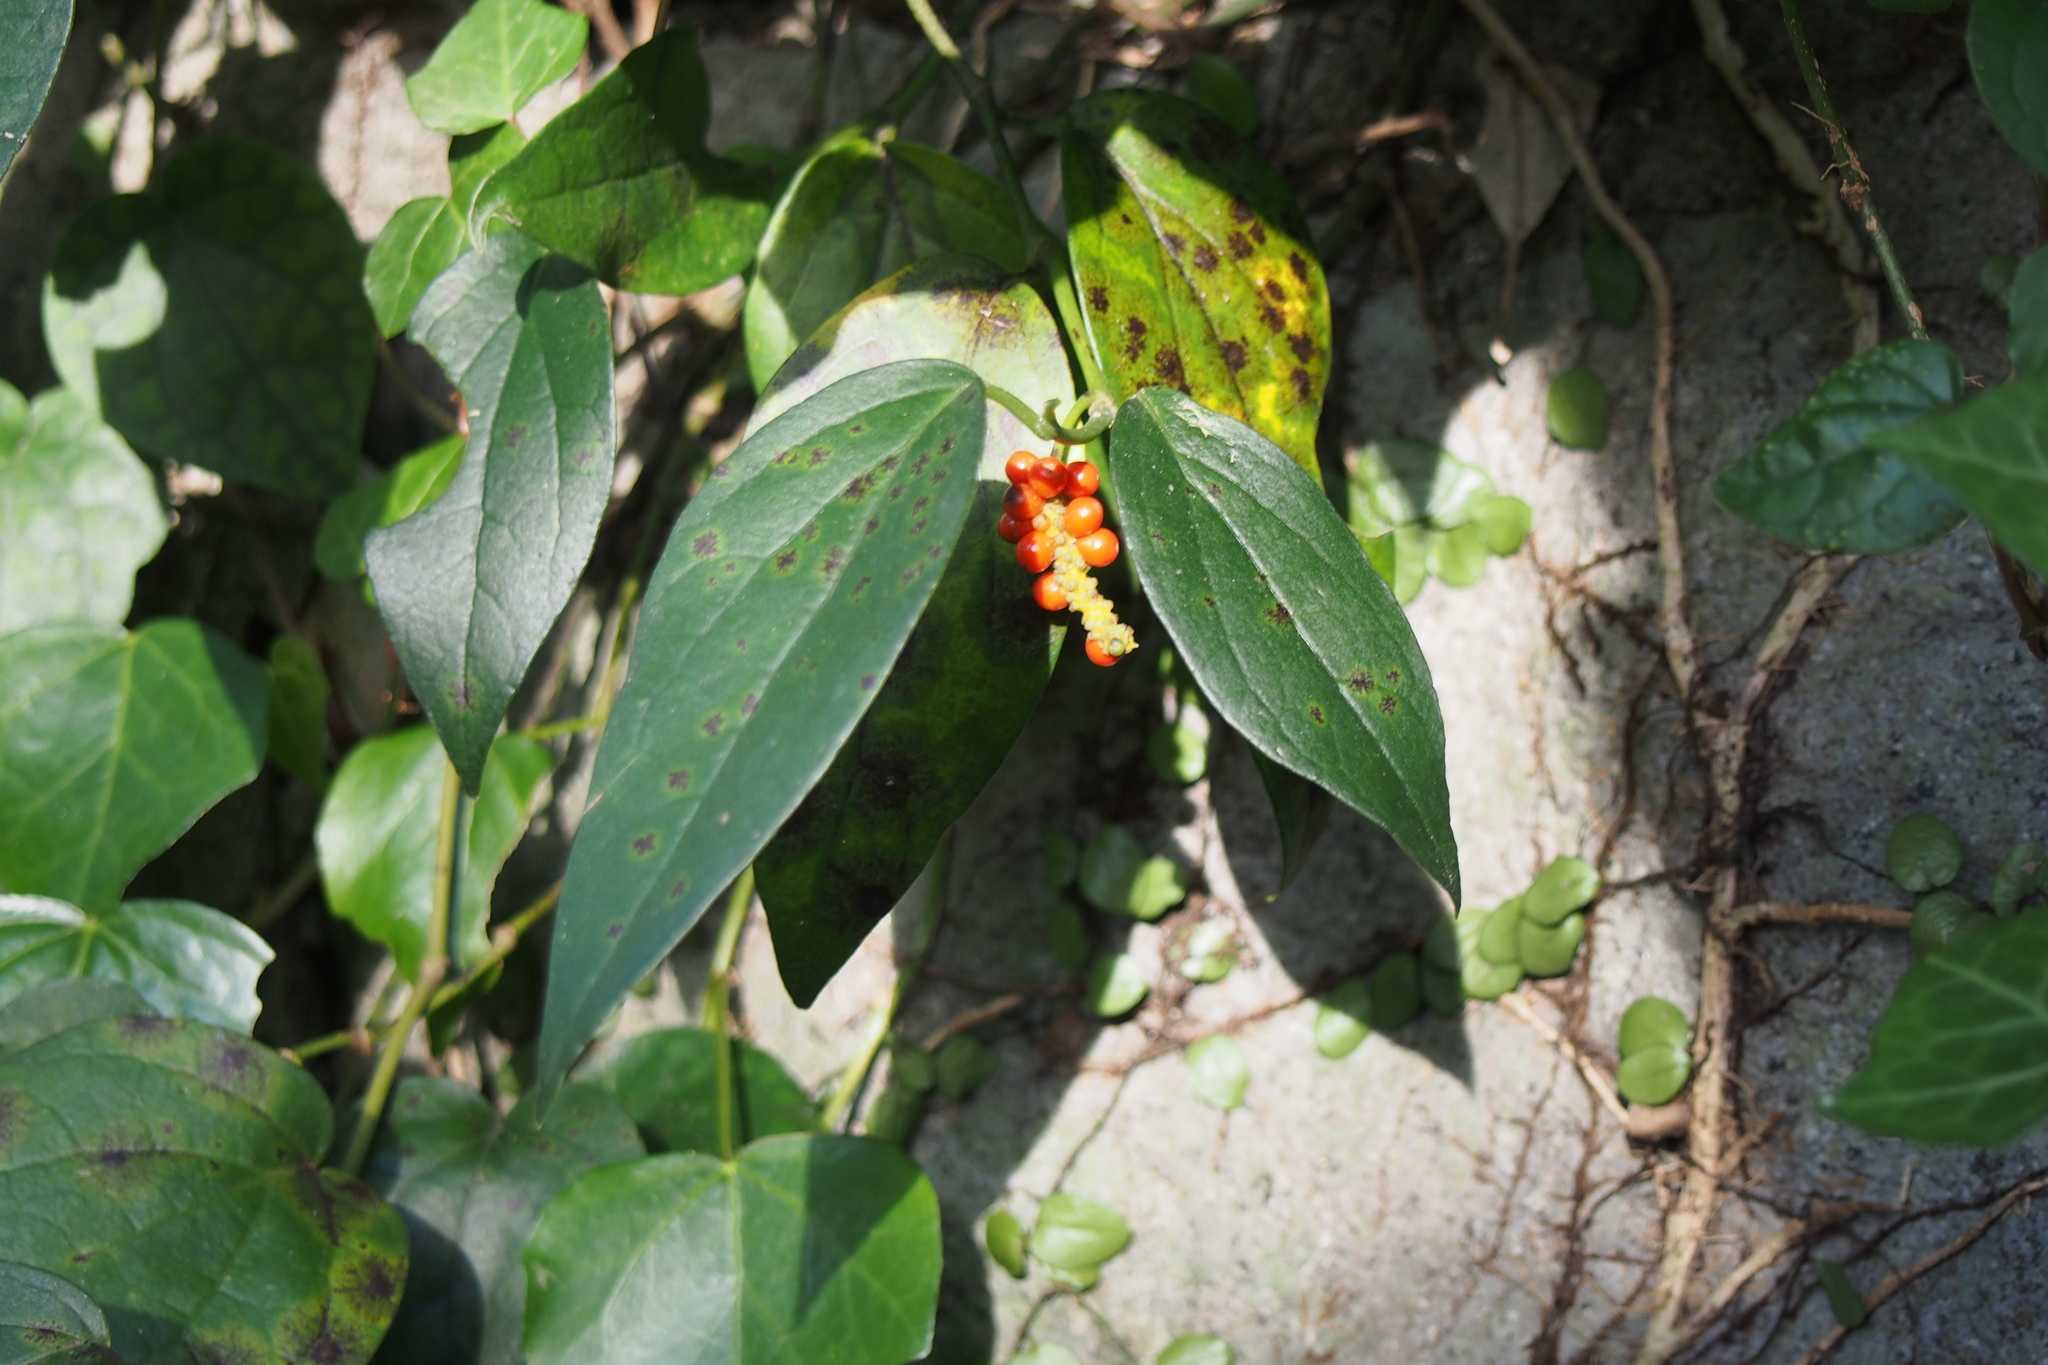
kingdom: Plantae
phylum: Tracheophyta
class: Magnoliopsida
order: Piperales
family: Piperaceae
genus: Piper
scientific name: Piper kadsura
